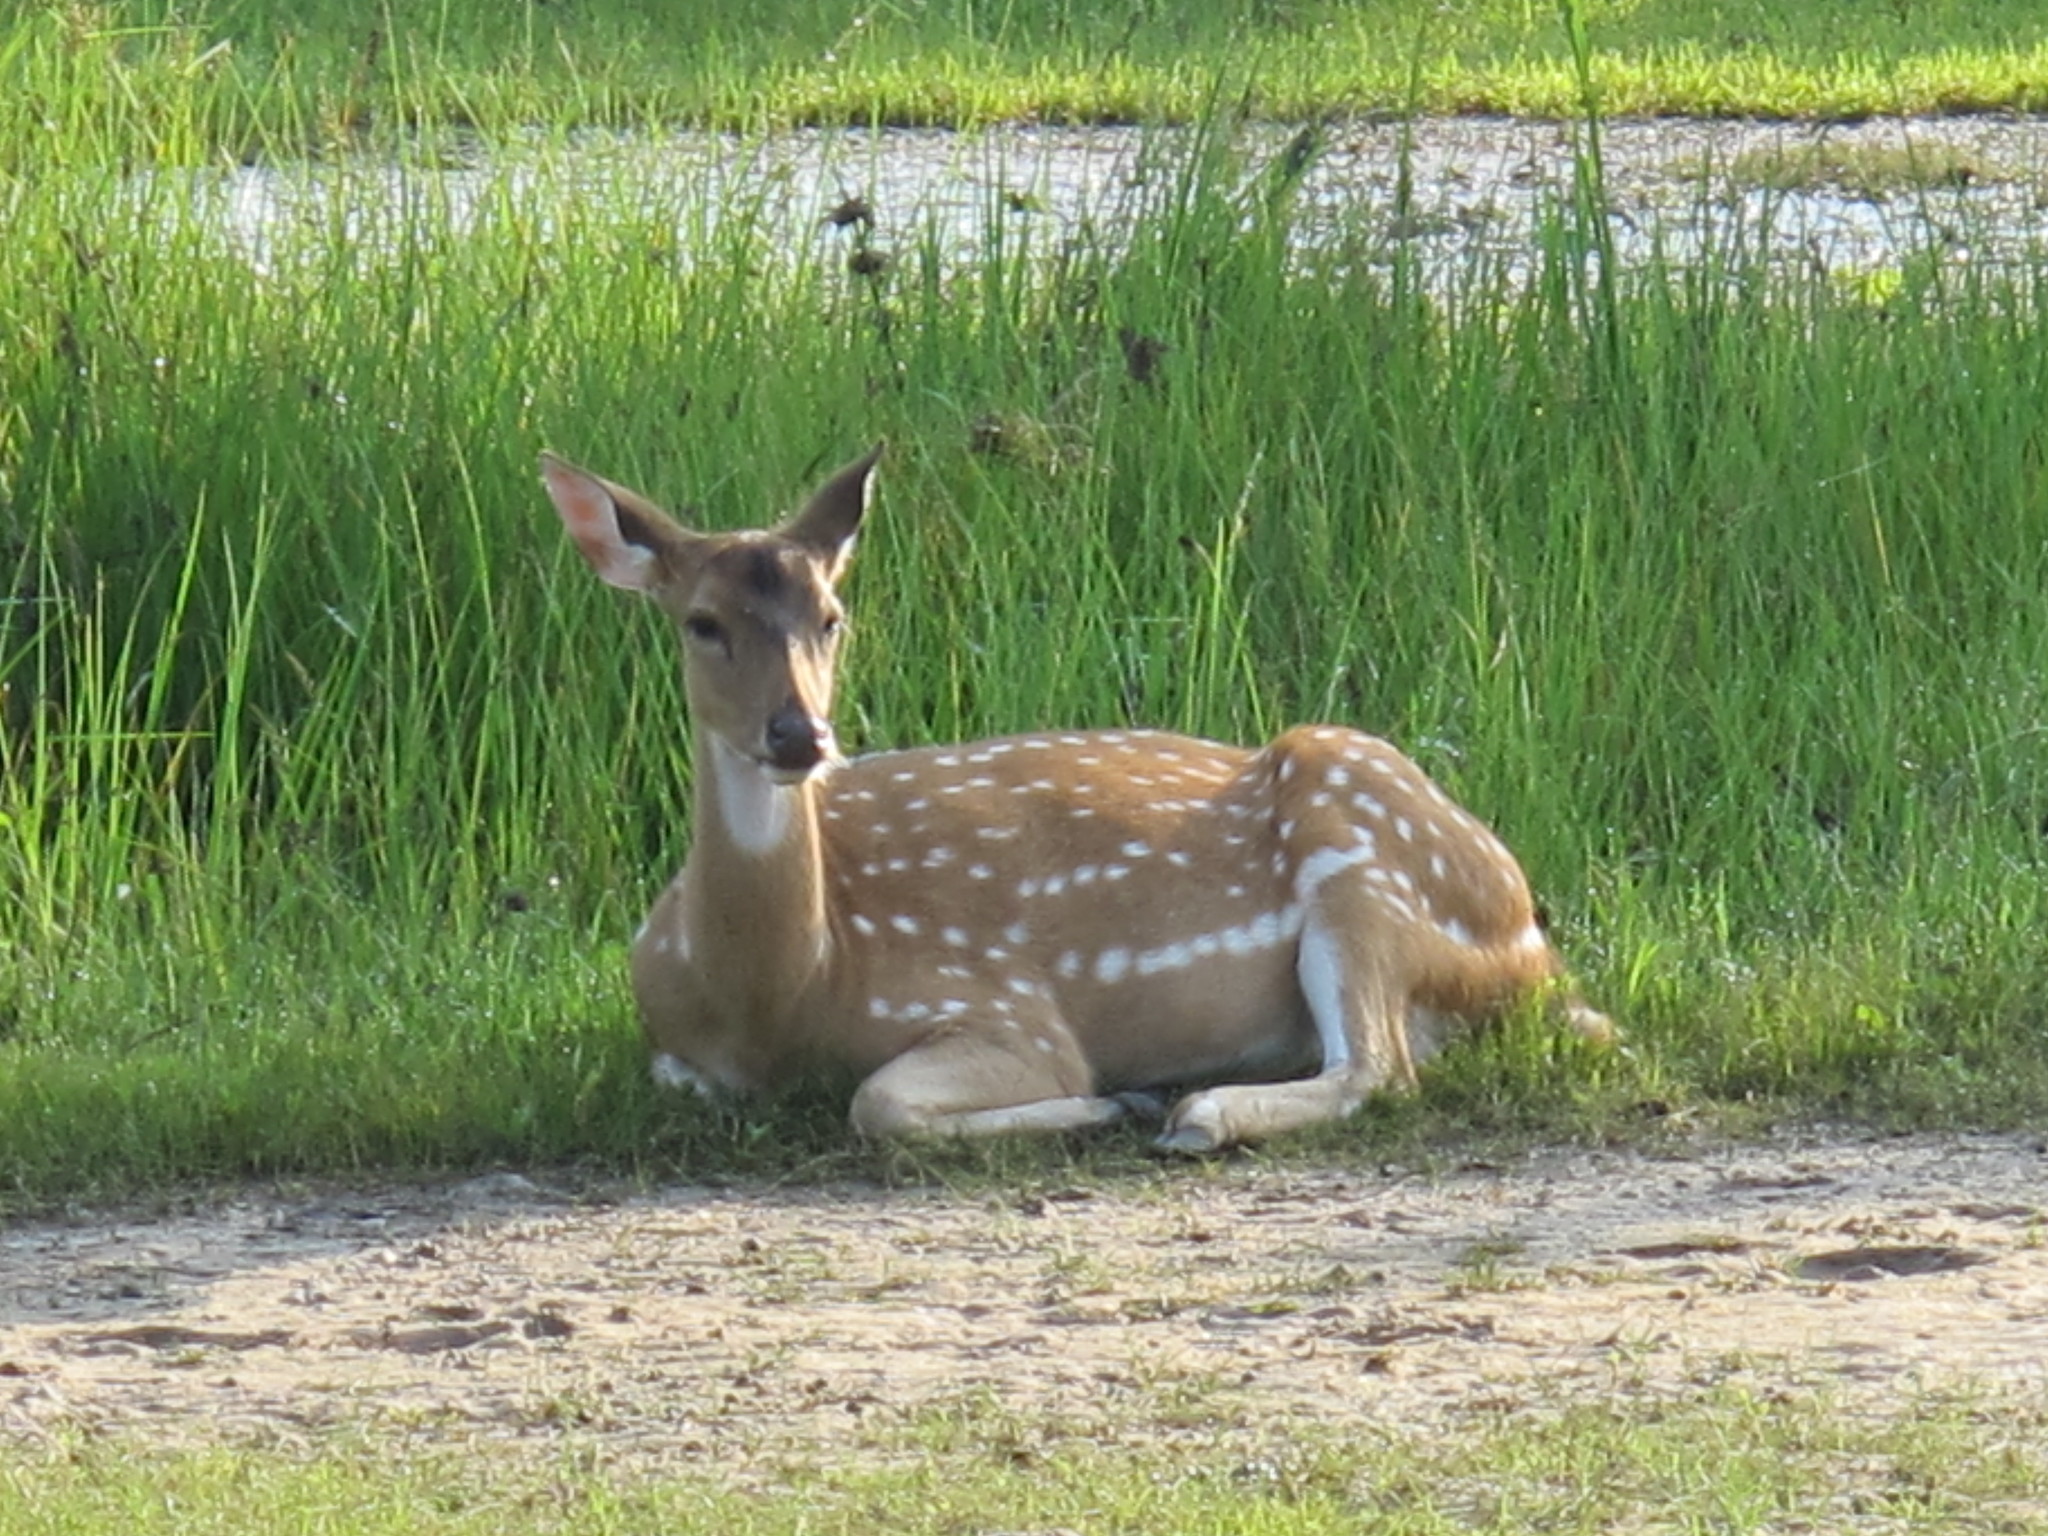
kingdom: Animalia
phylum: Chordata
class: Mammalia
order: Artiodactyla
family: Cervidae
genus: Axis
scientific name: Axis axis
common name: Chital
